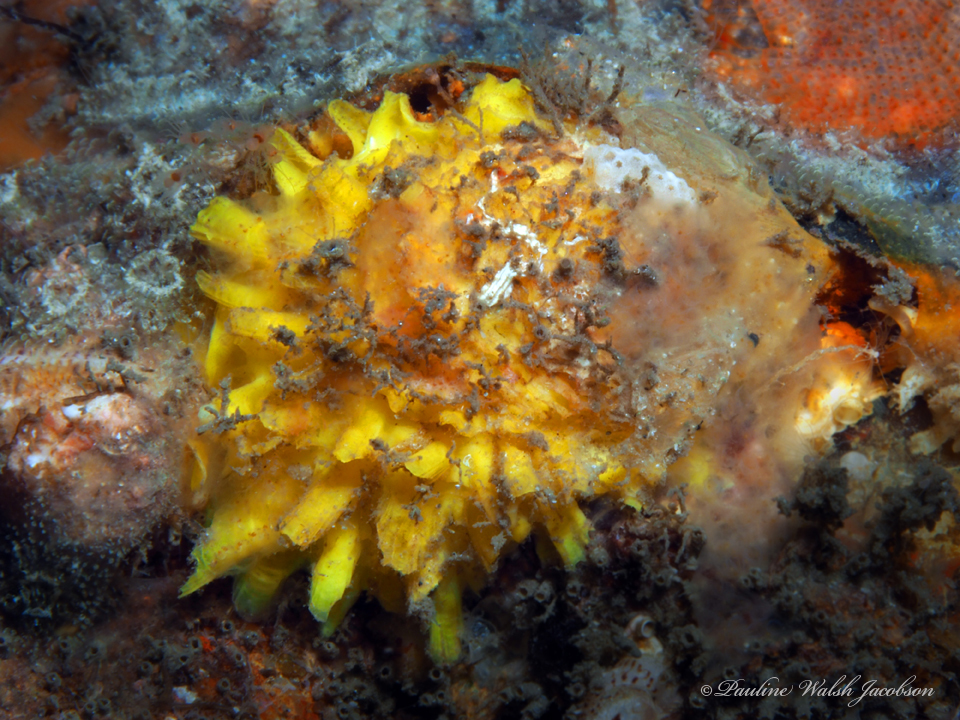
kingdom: Animalia
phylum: Mollusca
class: Bivalvia
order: Venerida
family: Chamidae
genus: Chama
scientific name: Chama macerophylla
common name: Leafy jewelbox
